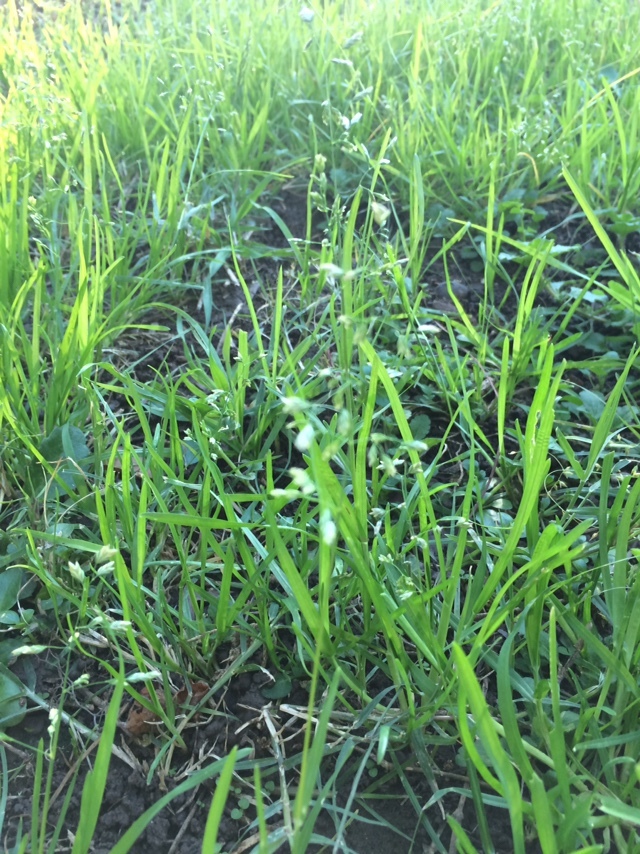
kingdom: Plantae
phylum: Tracheophyta
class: Liliopsida
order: Poales
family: Poaceae
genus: Poa
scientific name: Poa annua
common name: Annual bluegrass
